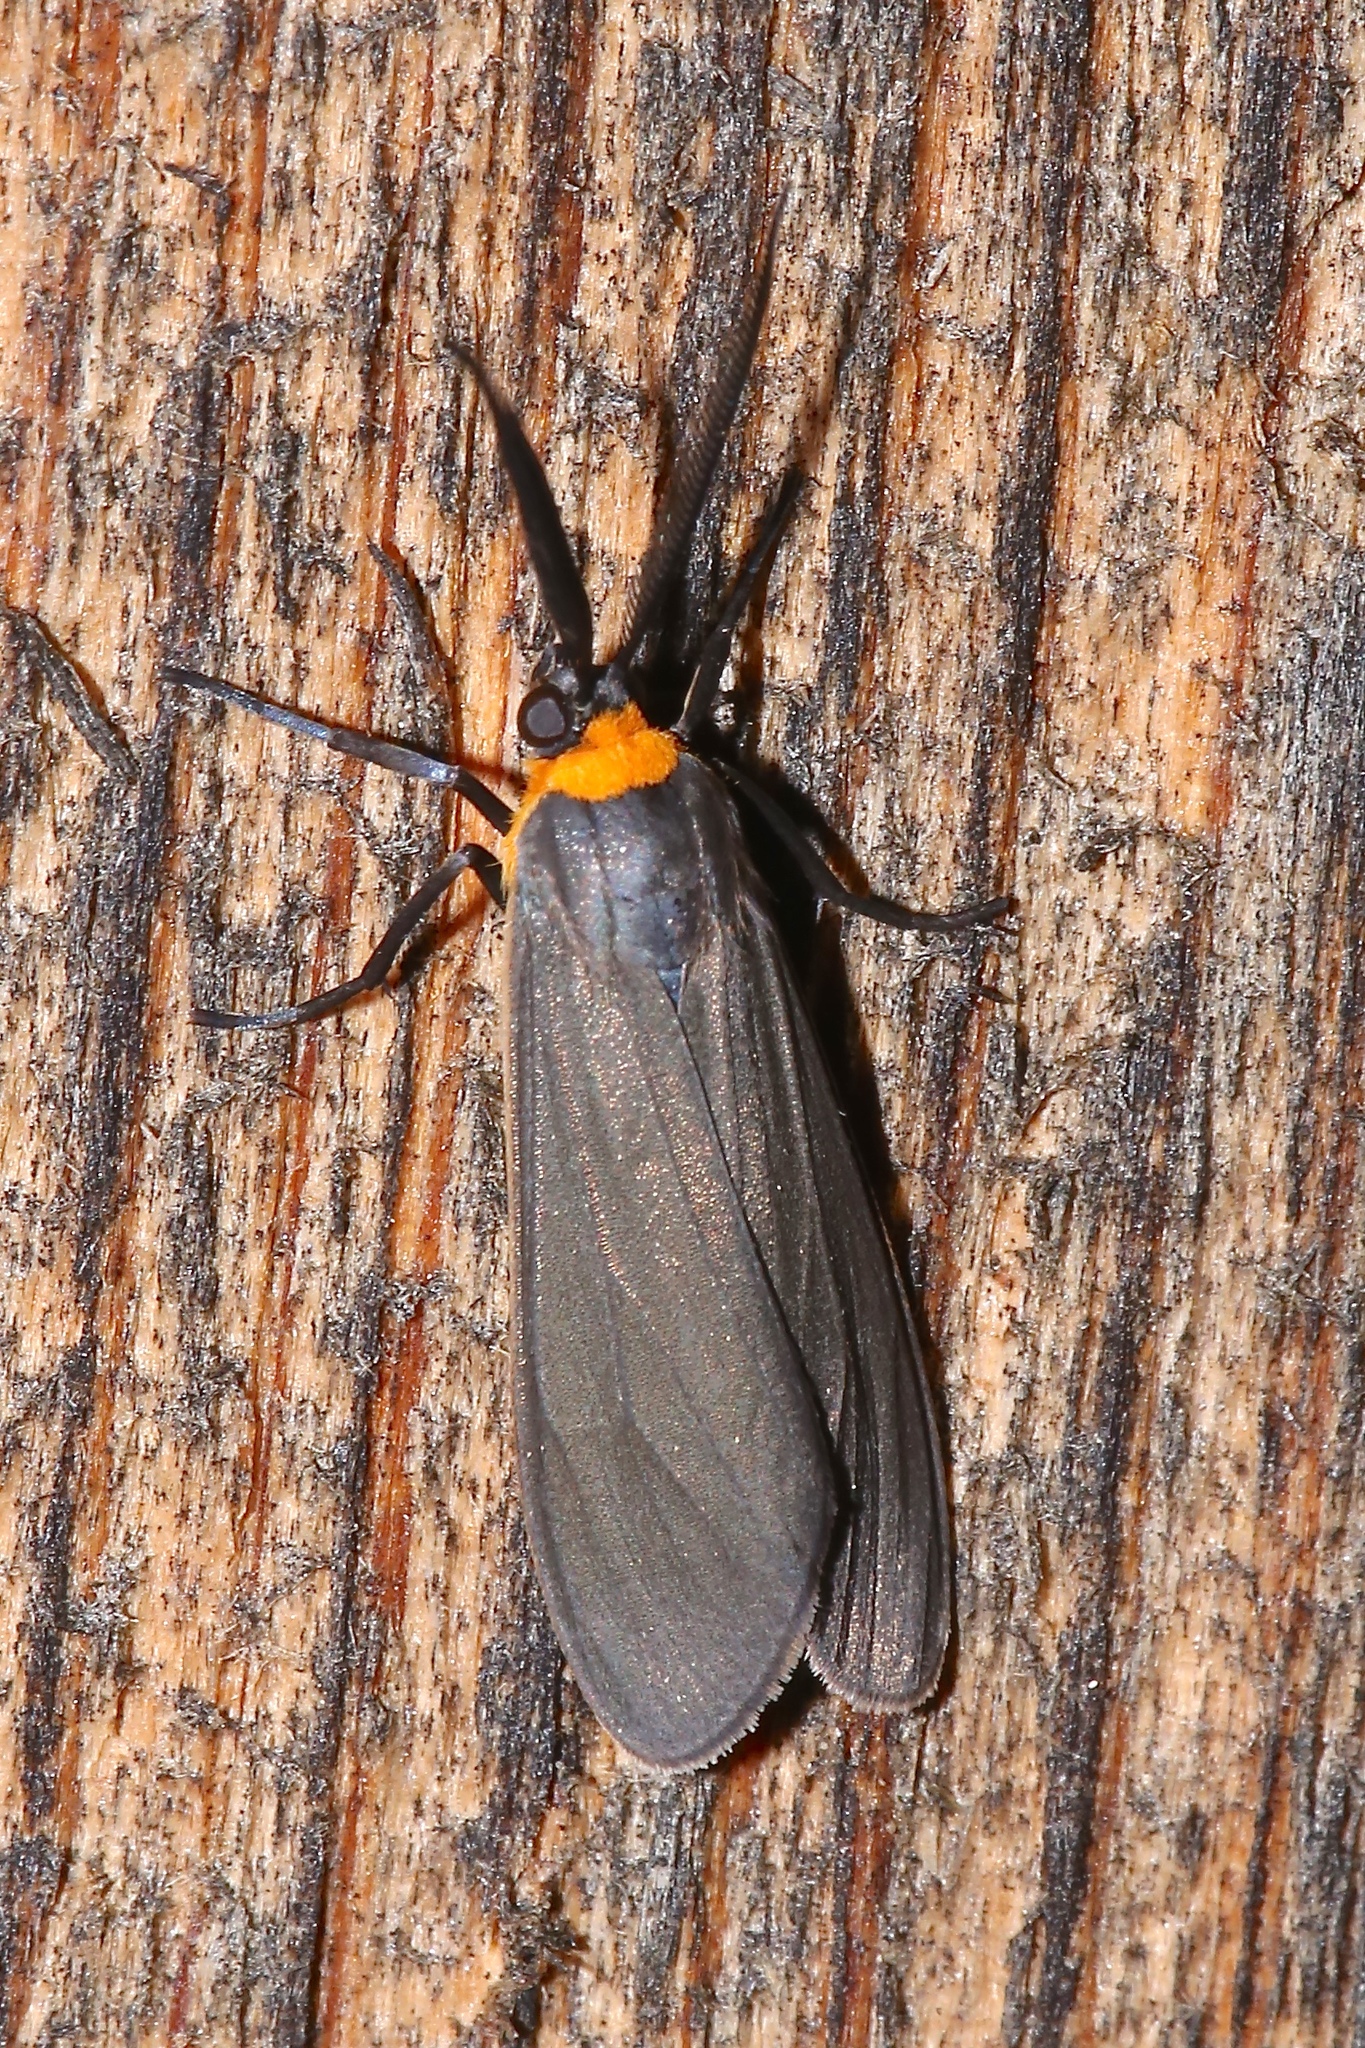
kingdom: Animalia
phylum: Arthropoda
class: Insecta
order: Lepidoptera
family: Erebidae
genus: Cisseps
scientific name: Cisseps fulvicollis
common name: Yellow-collared scape moth
